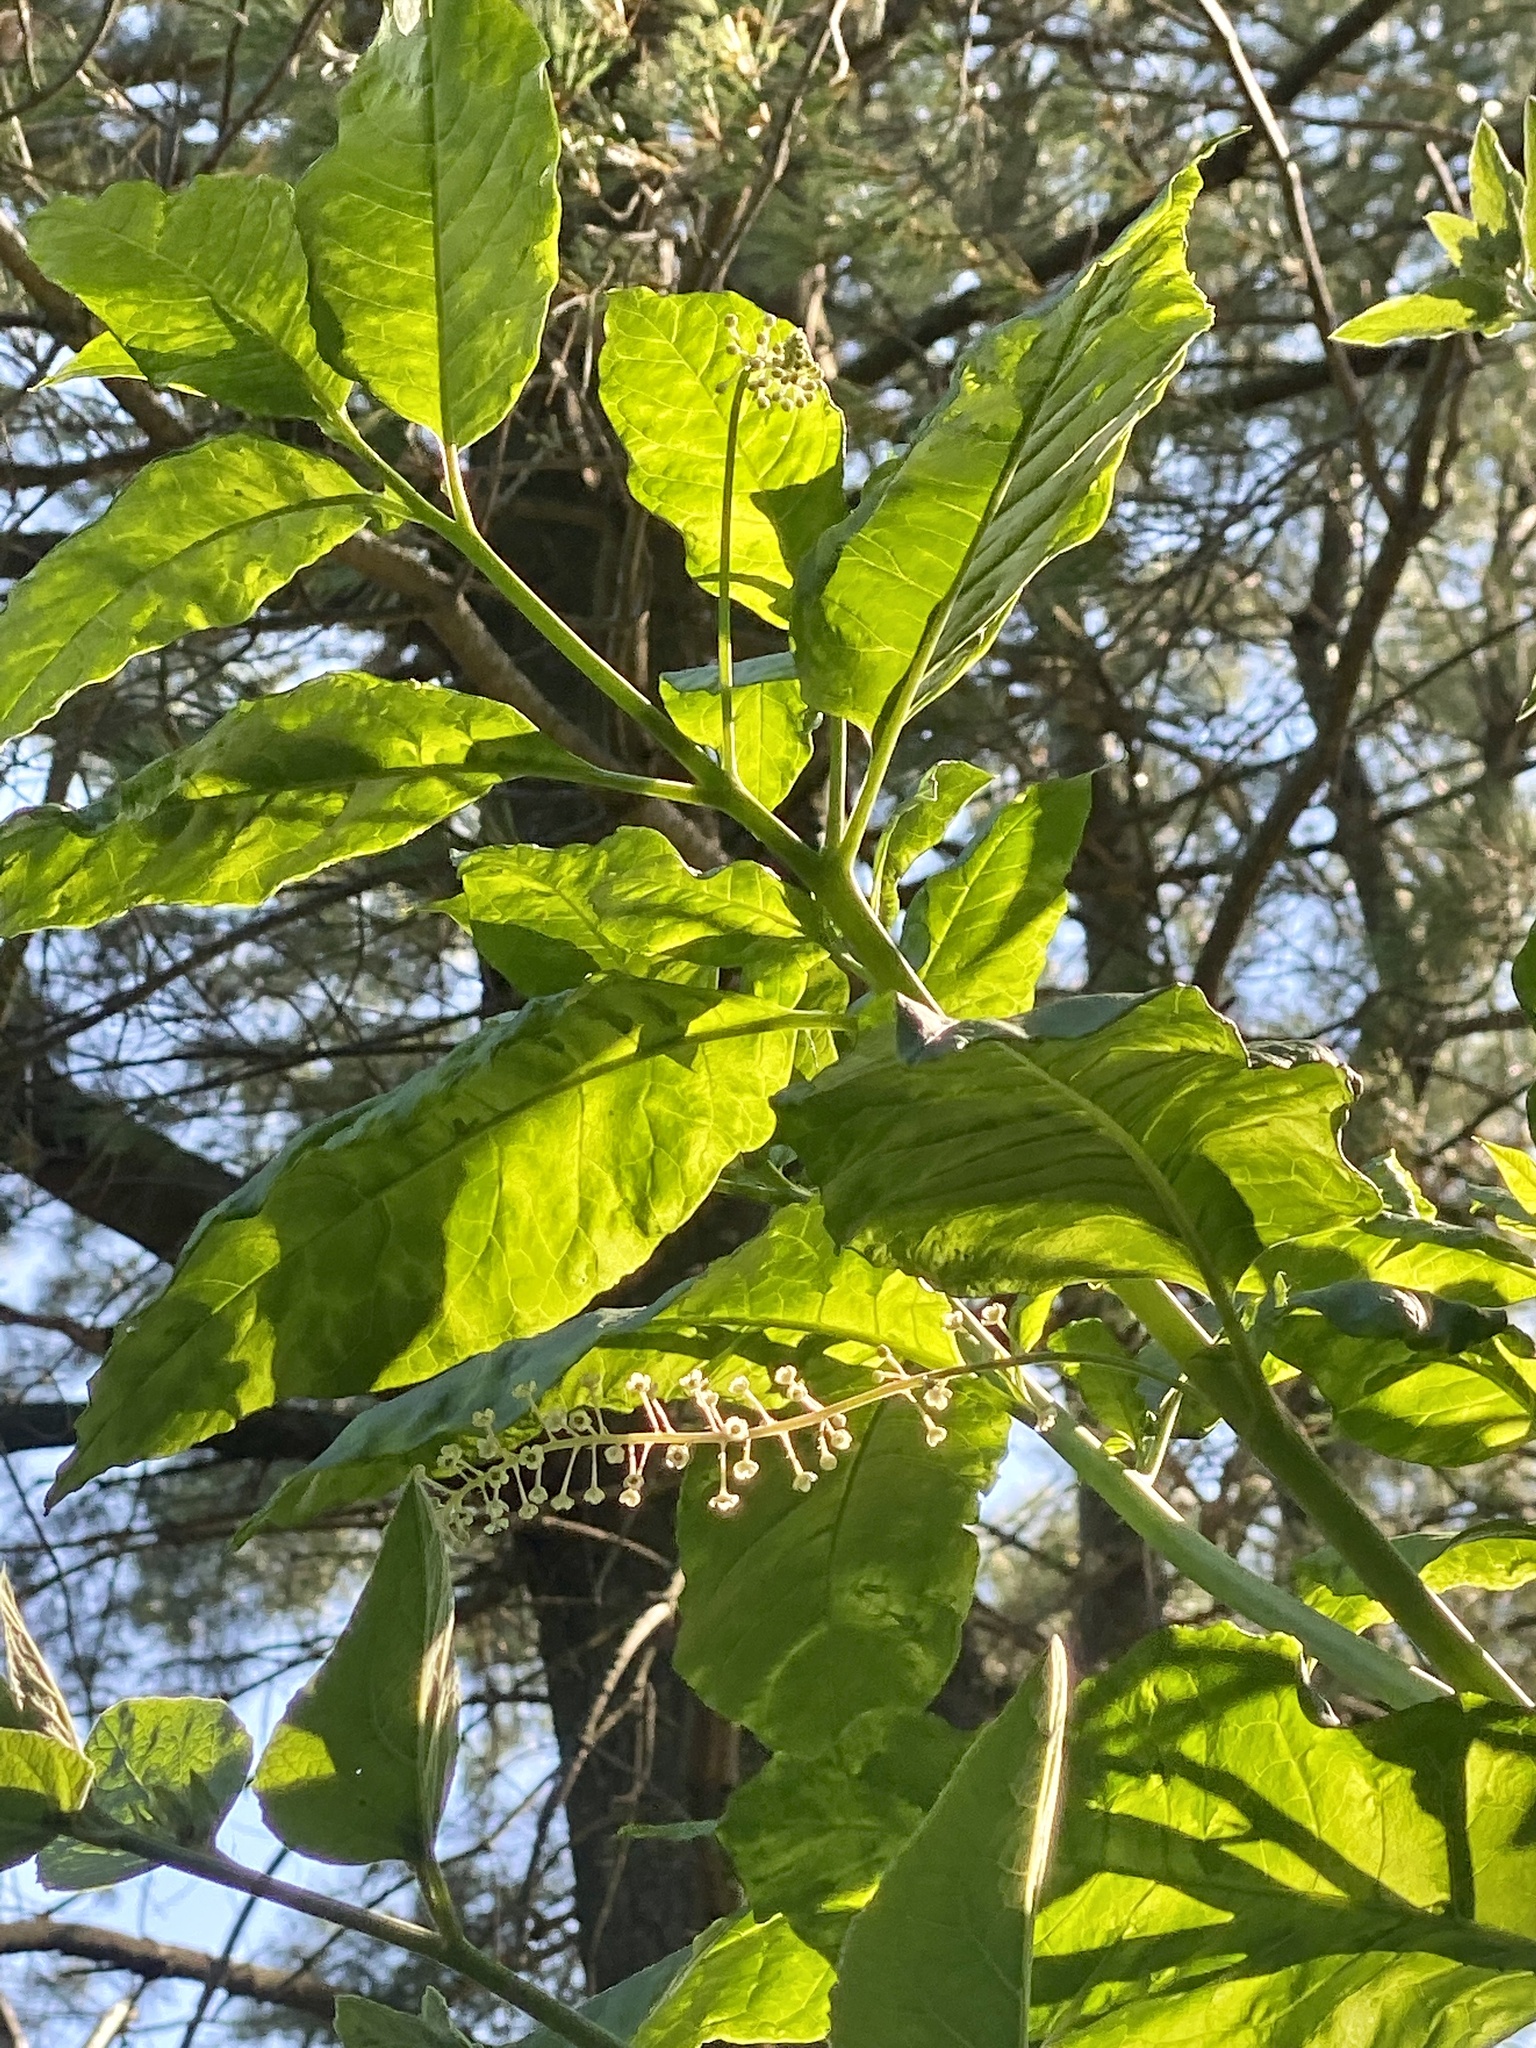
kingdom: Plantae
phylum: Tracheophyta
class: Magnoliopsida
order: Caryophyllales
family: Phytolaccaceae
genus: Phytolacca
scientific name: Phytolacca americana
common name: American pokeweed
